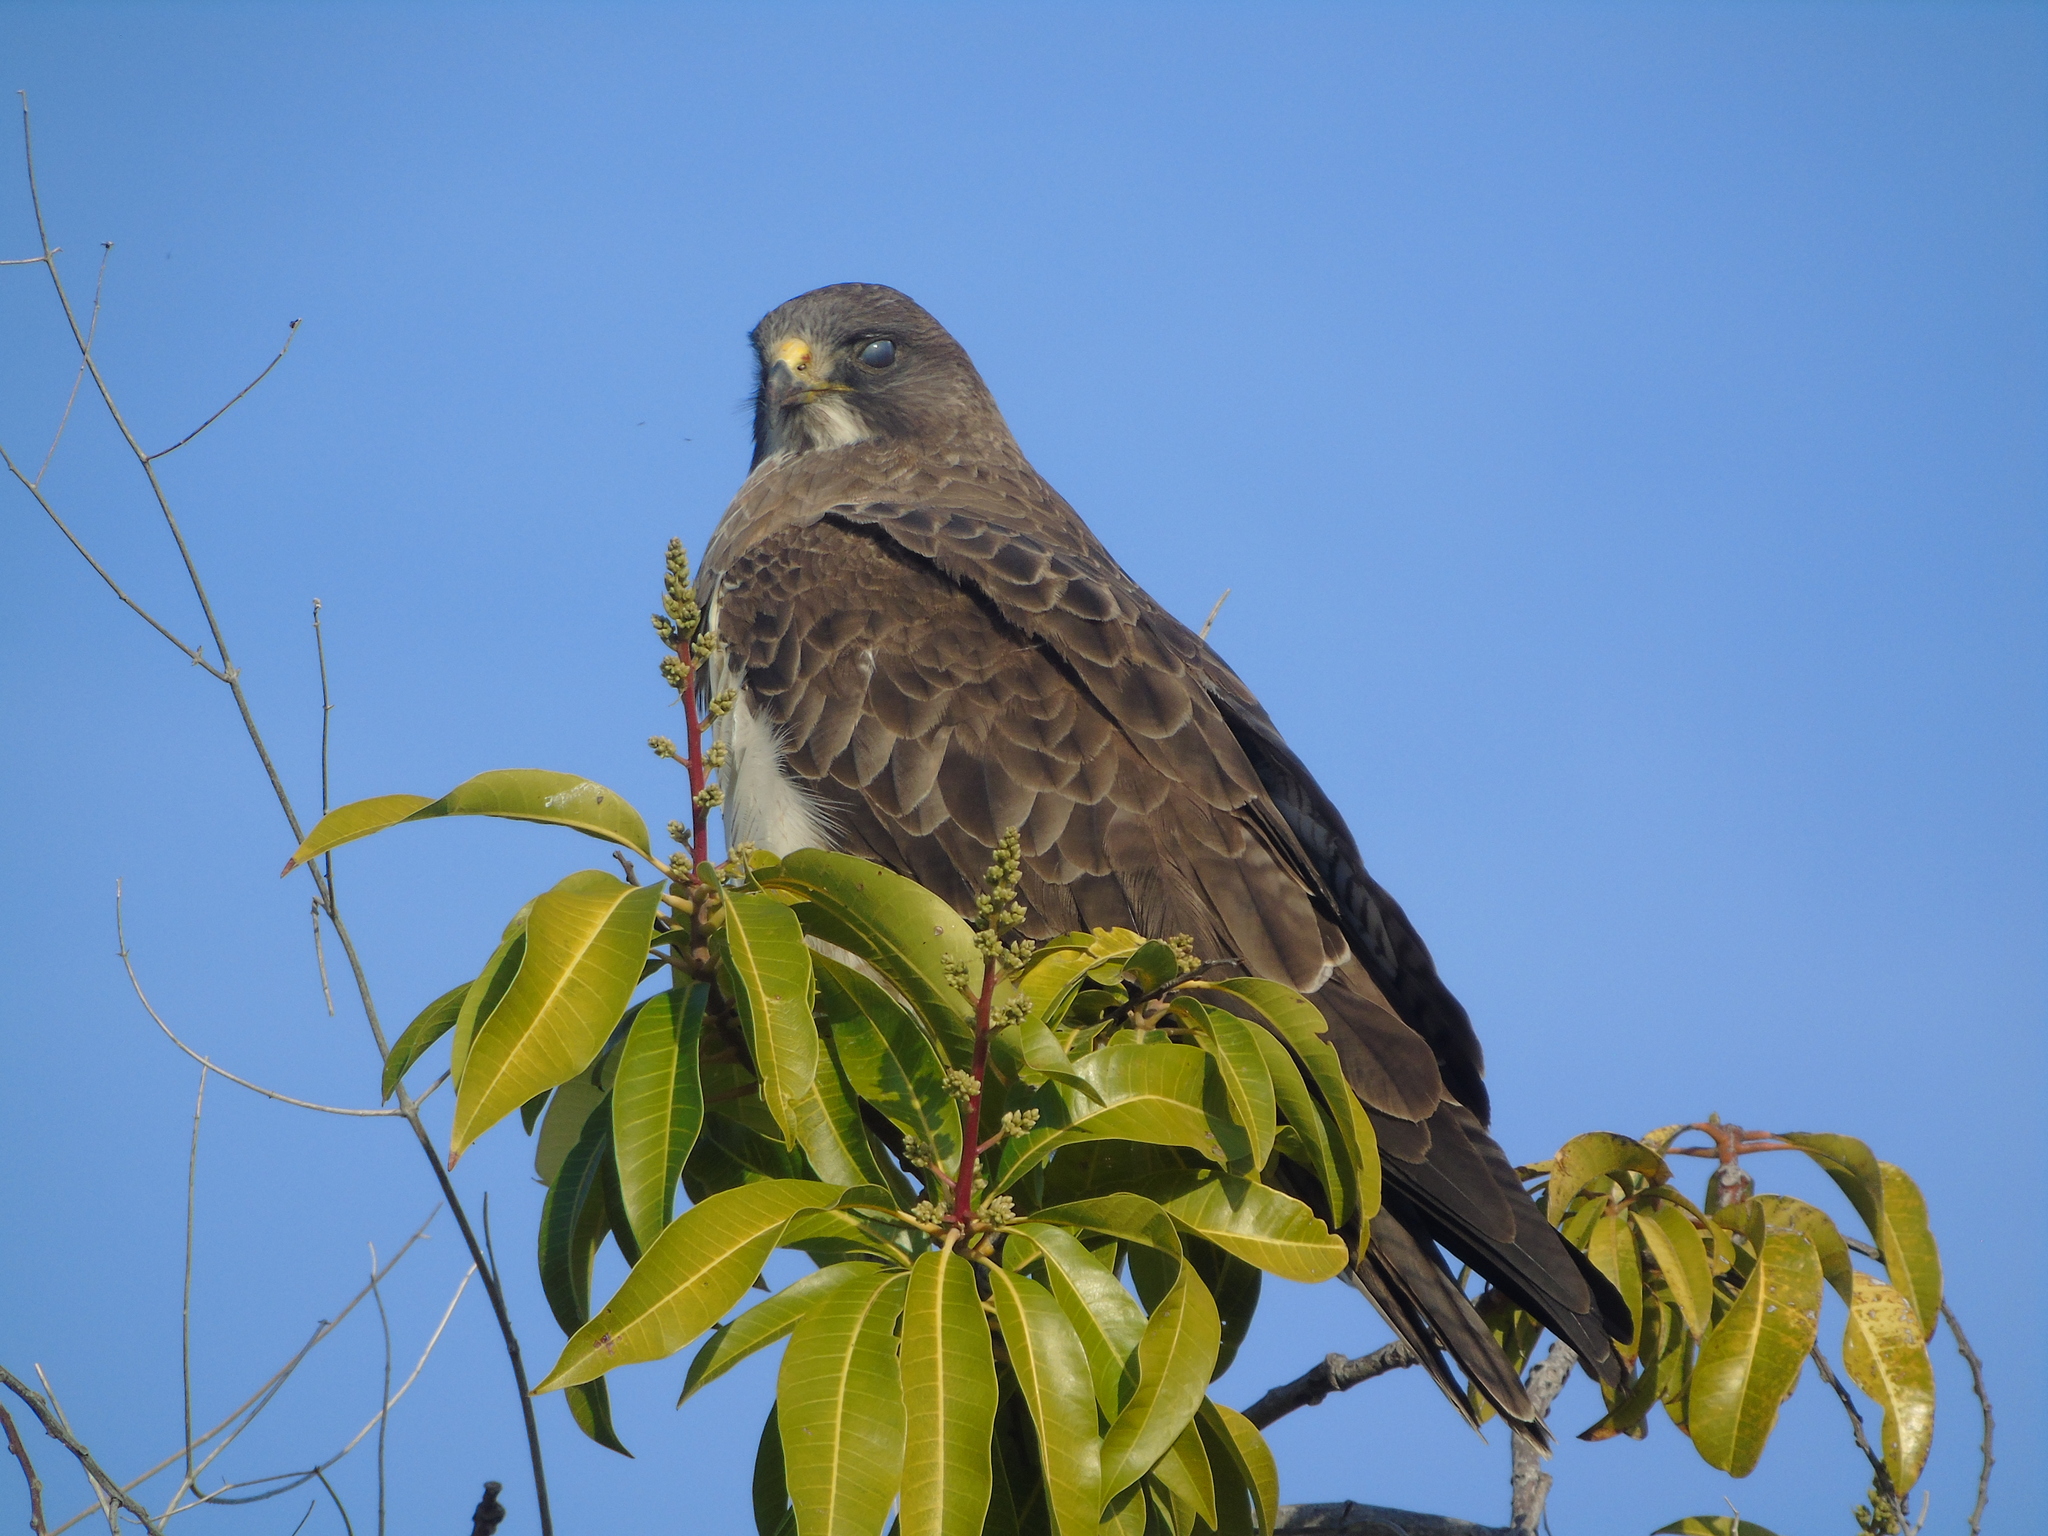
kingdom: Animalia
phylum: Chordata
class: Aves
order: Accipitriformes
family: Accipitridae
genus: Buteo
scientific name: Buteo swainsoni
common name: Swainson's hawk
